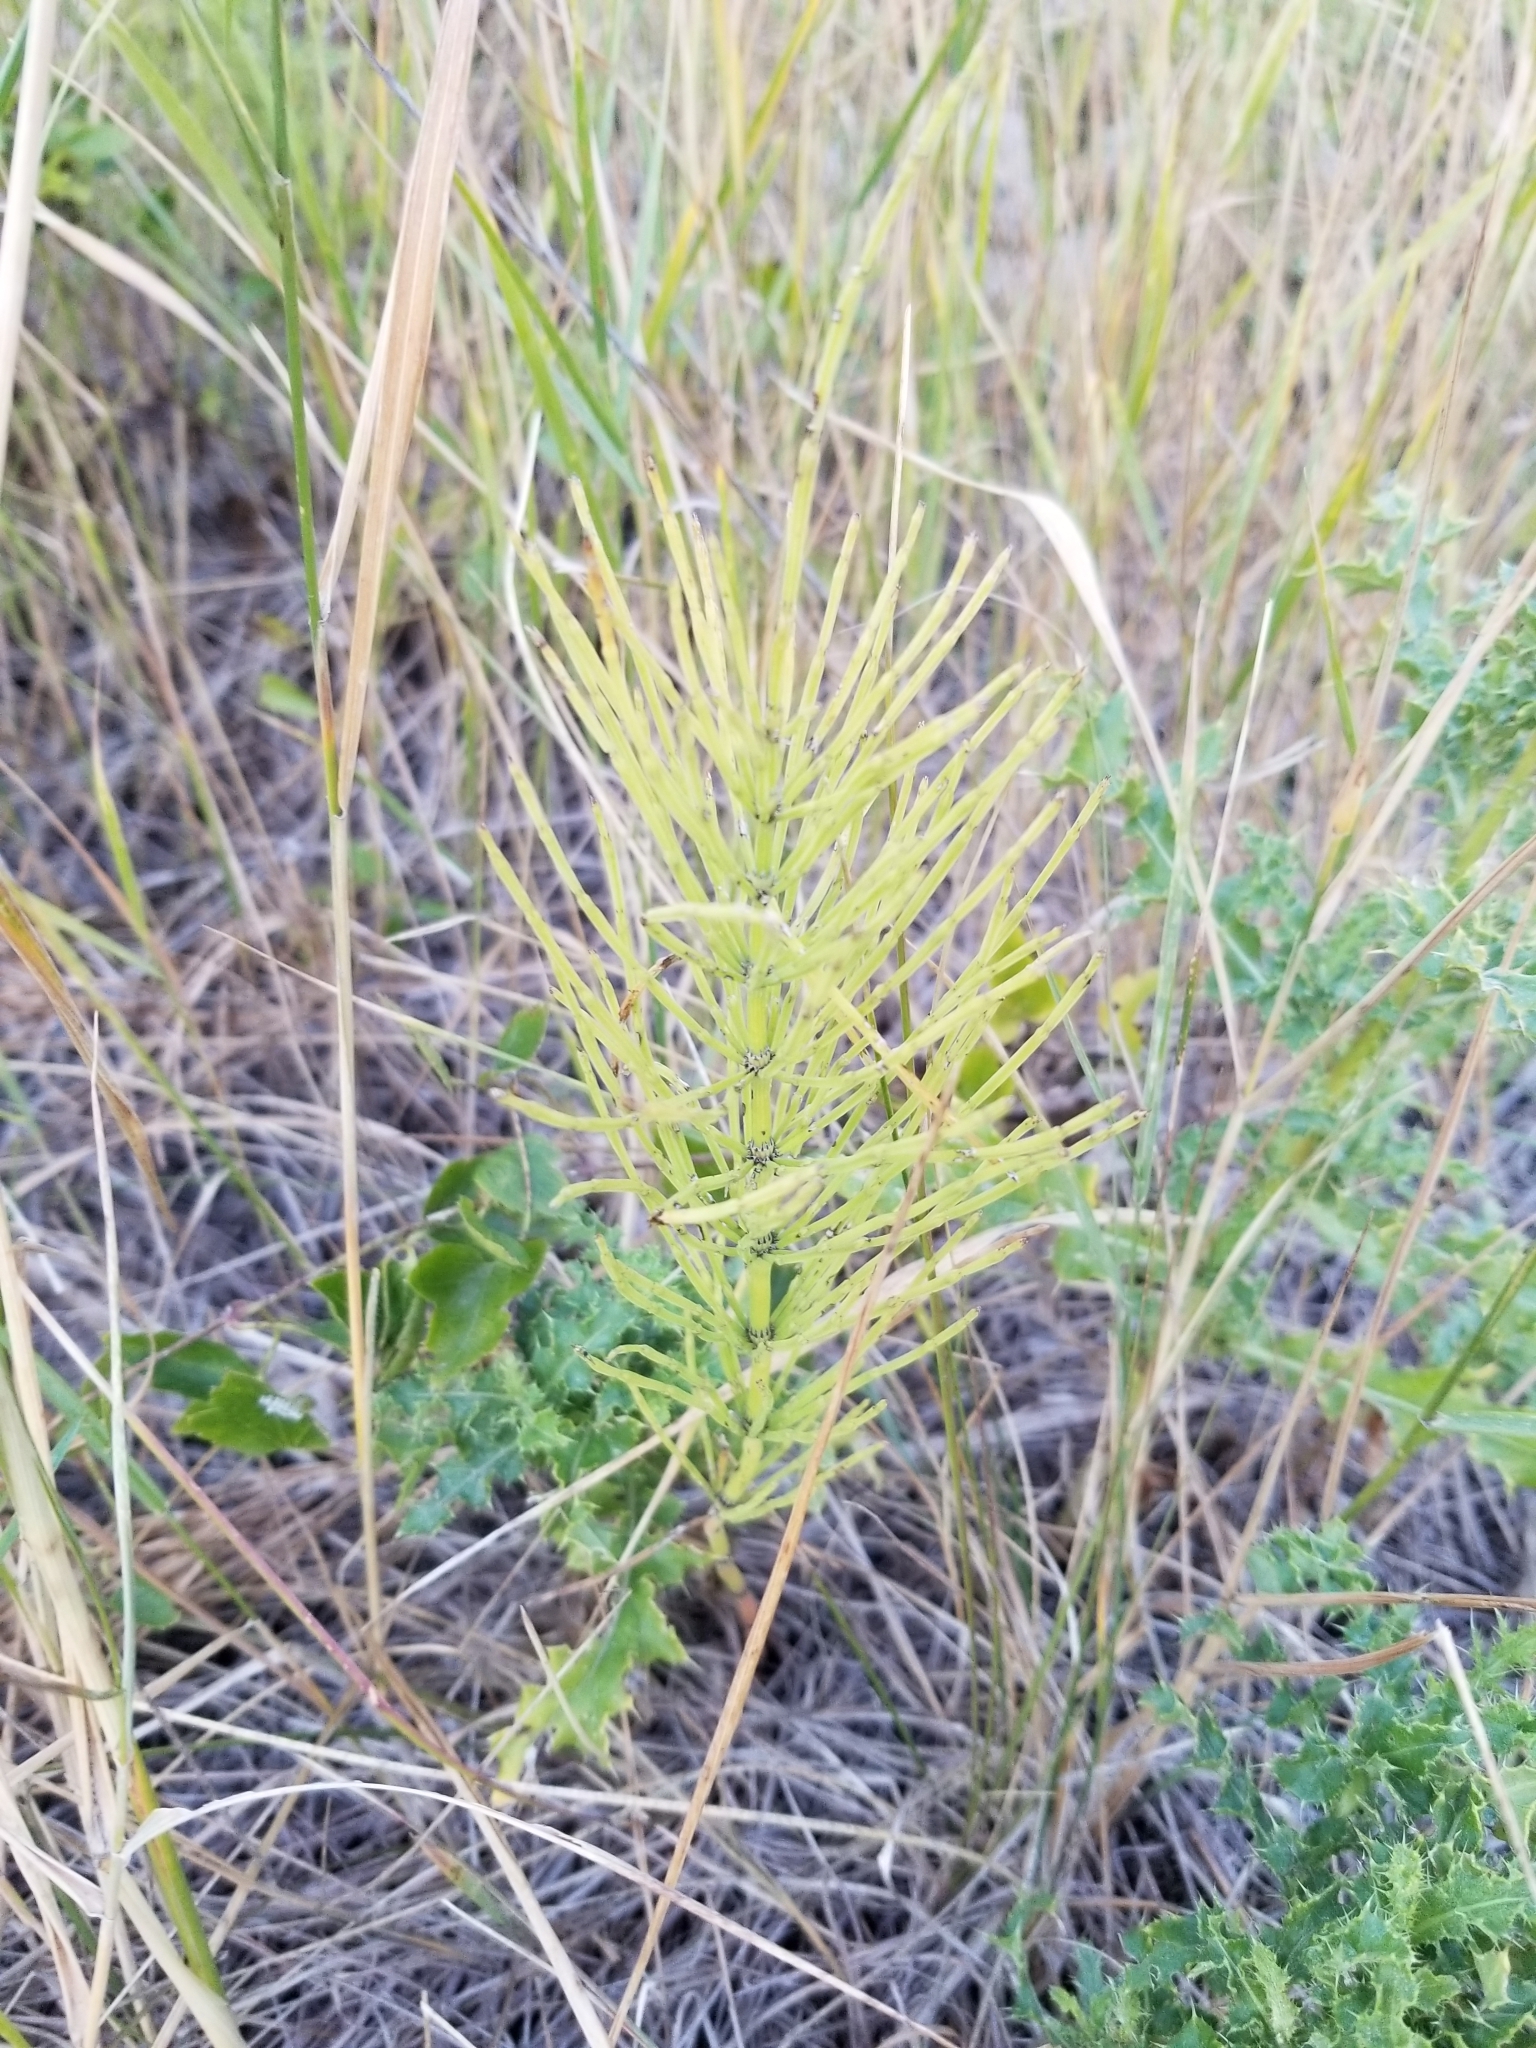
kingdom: Plantae
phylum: Tracheophyta
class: Polypodiopsida
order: Equisetales
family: Equisetaceae
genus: Equisetum
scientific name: Equisetum arvense
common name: Field horsetail
